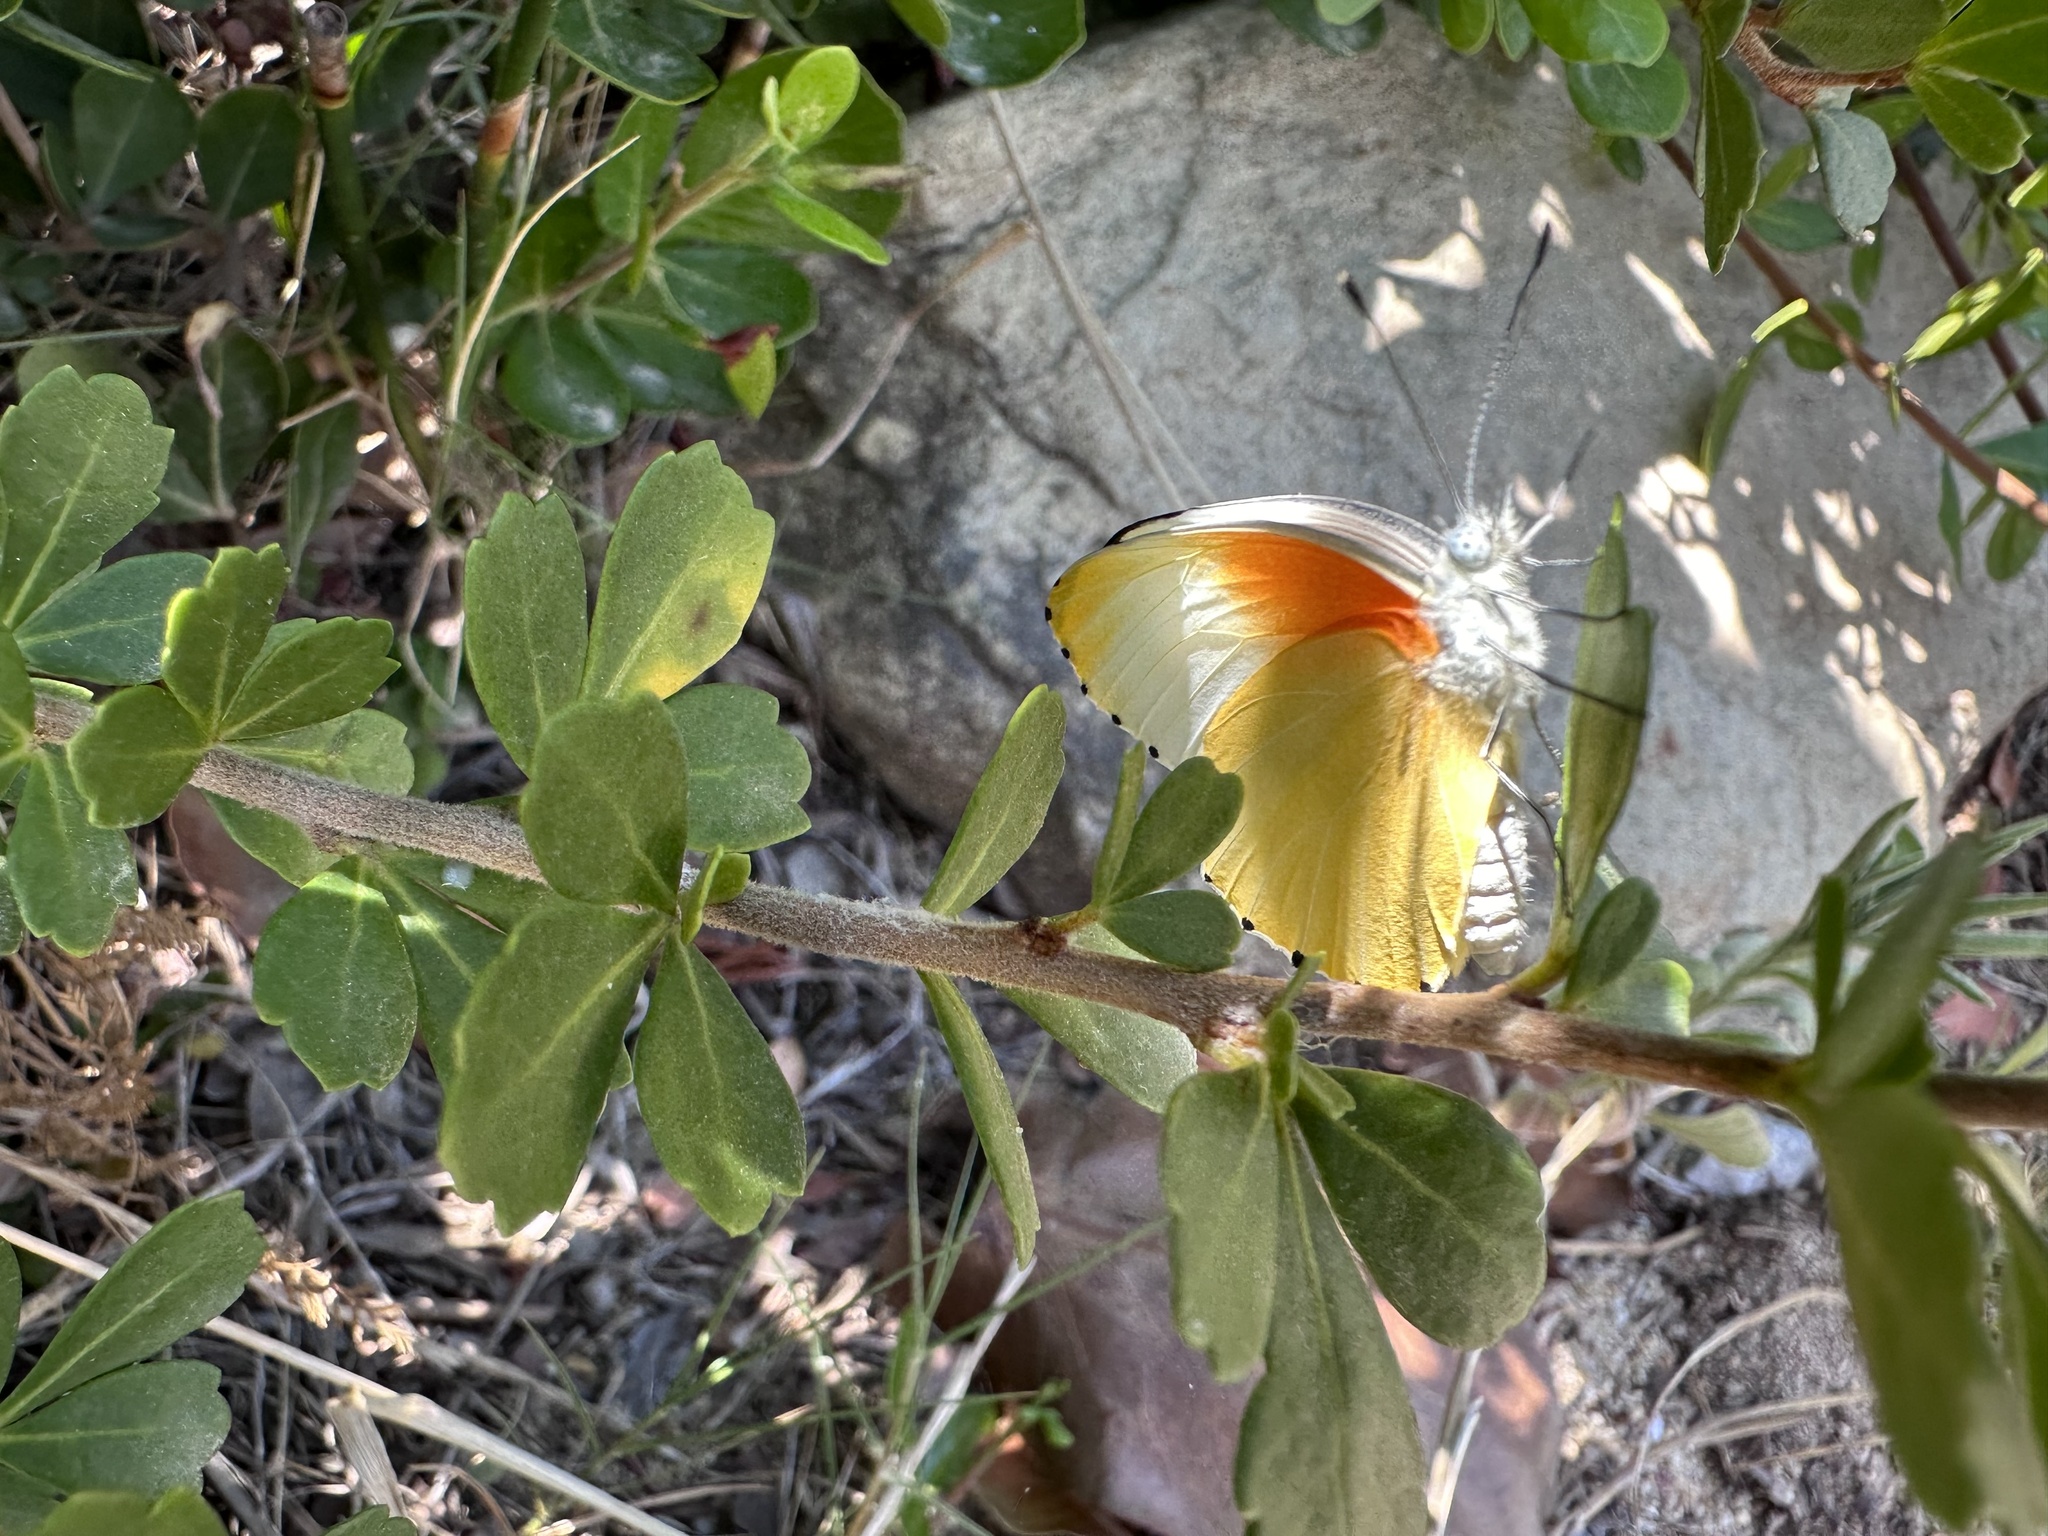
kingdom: Animalia
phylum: Arthropoda
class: Insecta
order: Lepidoptera
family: Pieridae
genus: Mylothris
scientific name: Mylothris agathina
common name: Eastern dotted border
